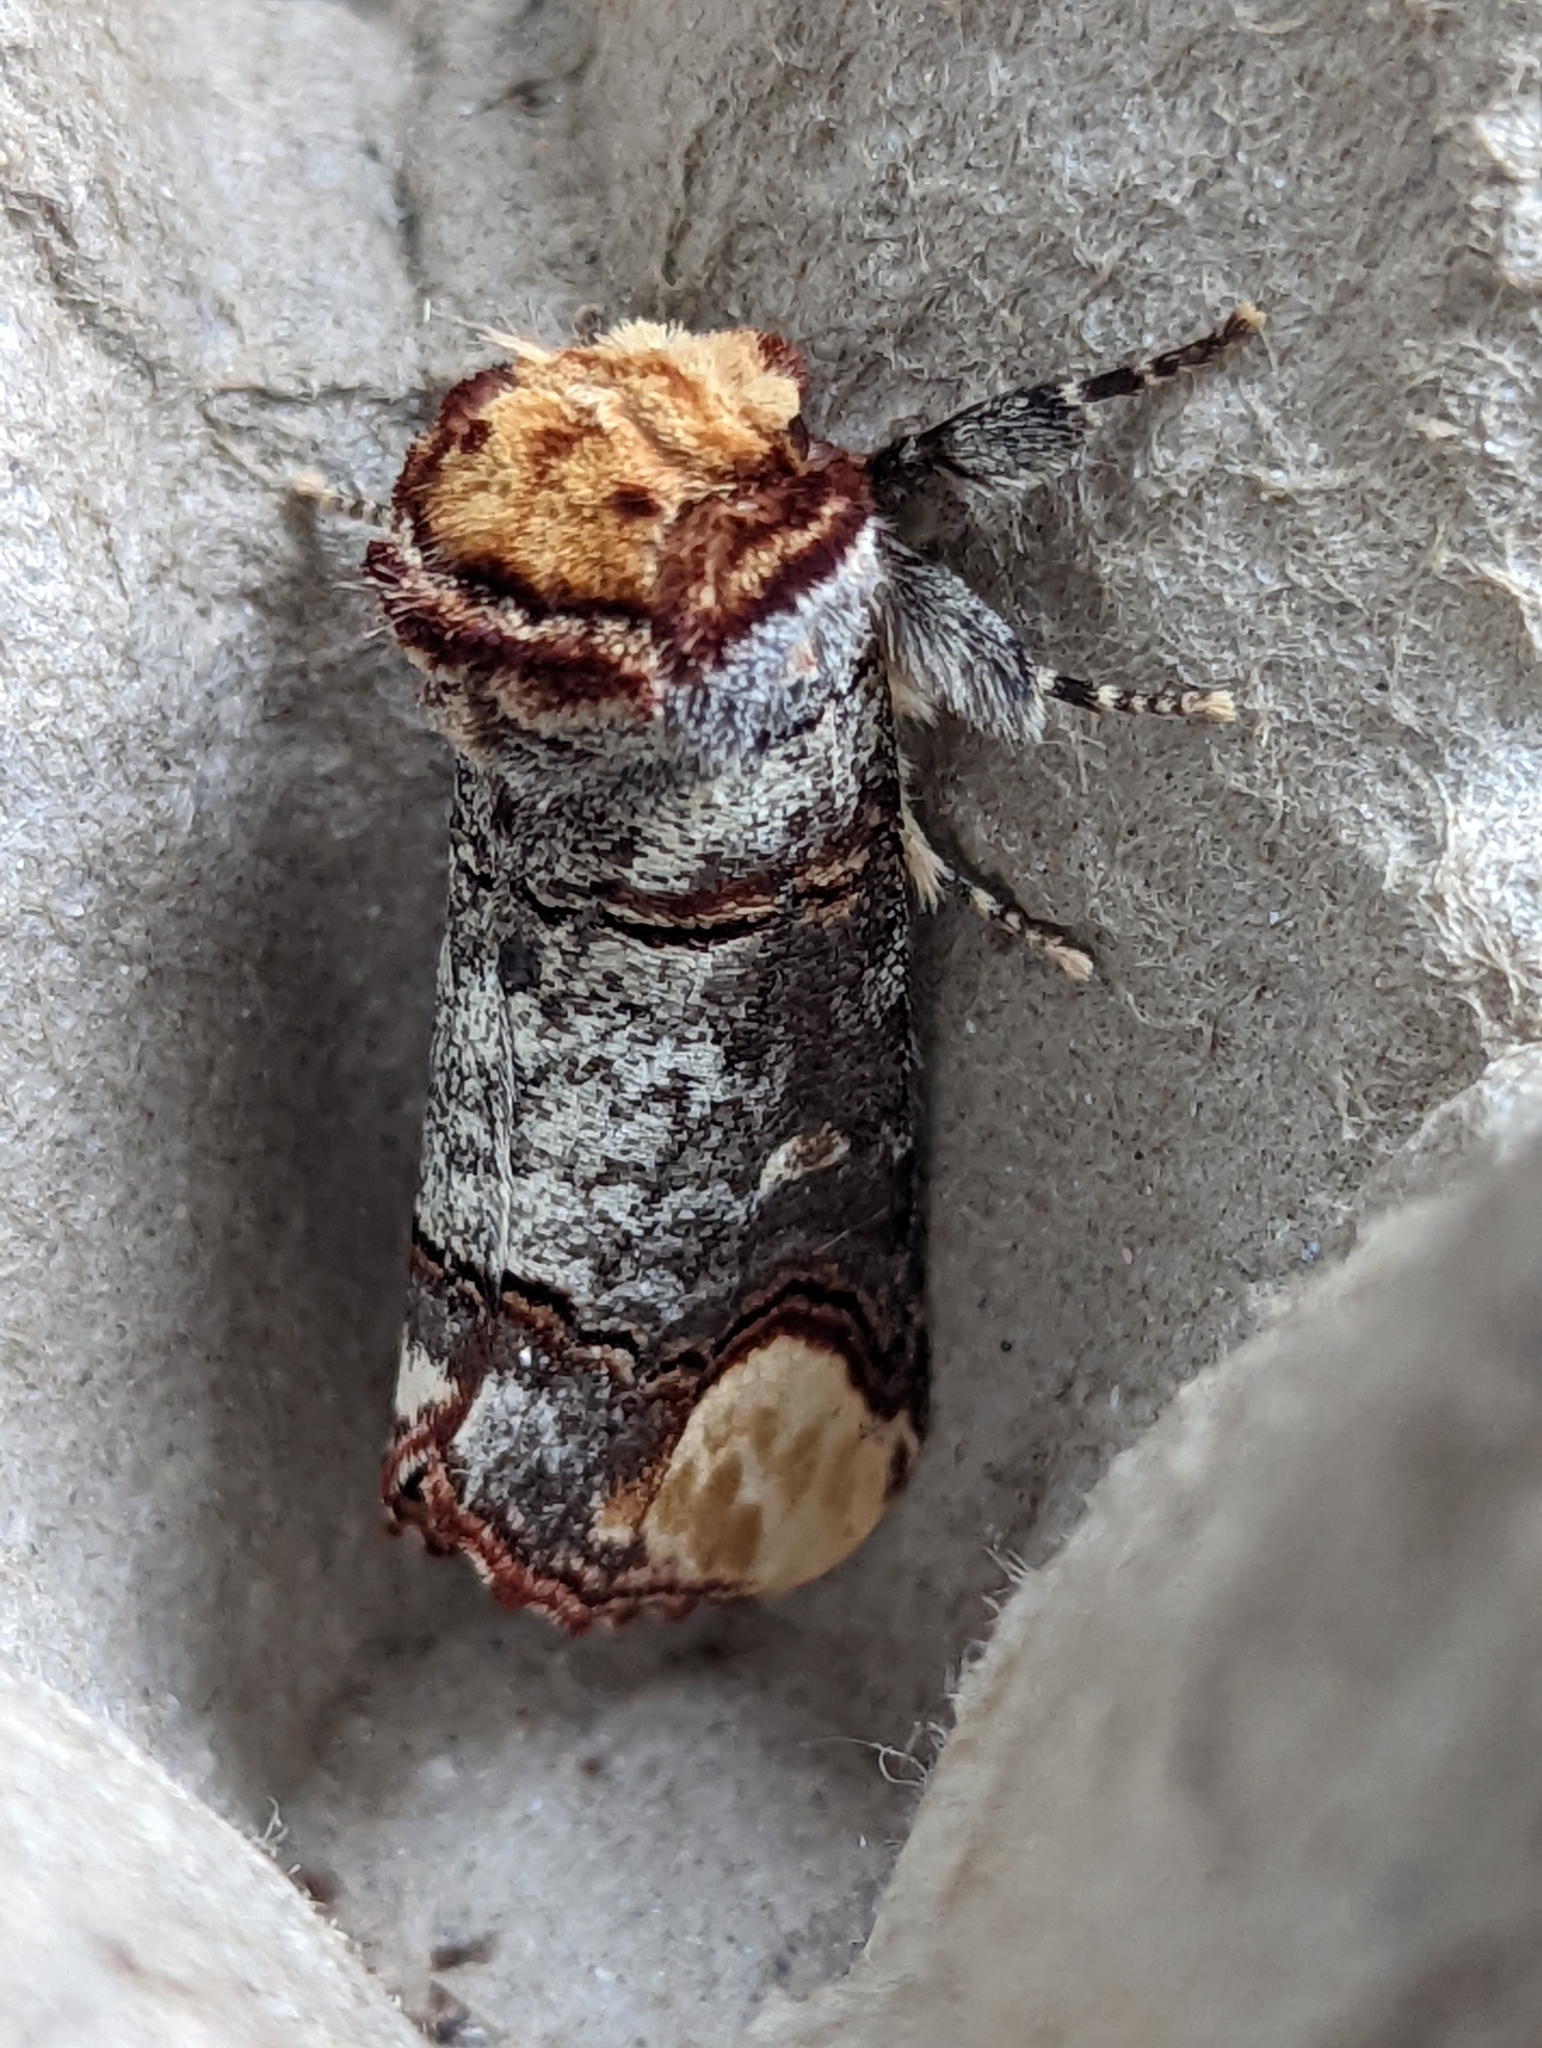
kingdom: Animalia
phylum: Arthropoda
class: Insecta
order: Lepidoptera
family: Notodontidae
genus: Phalera
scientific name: Phalera bucephala
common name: Buff-tip
